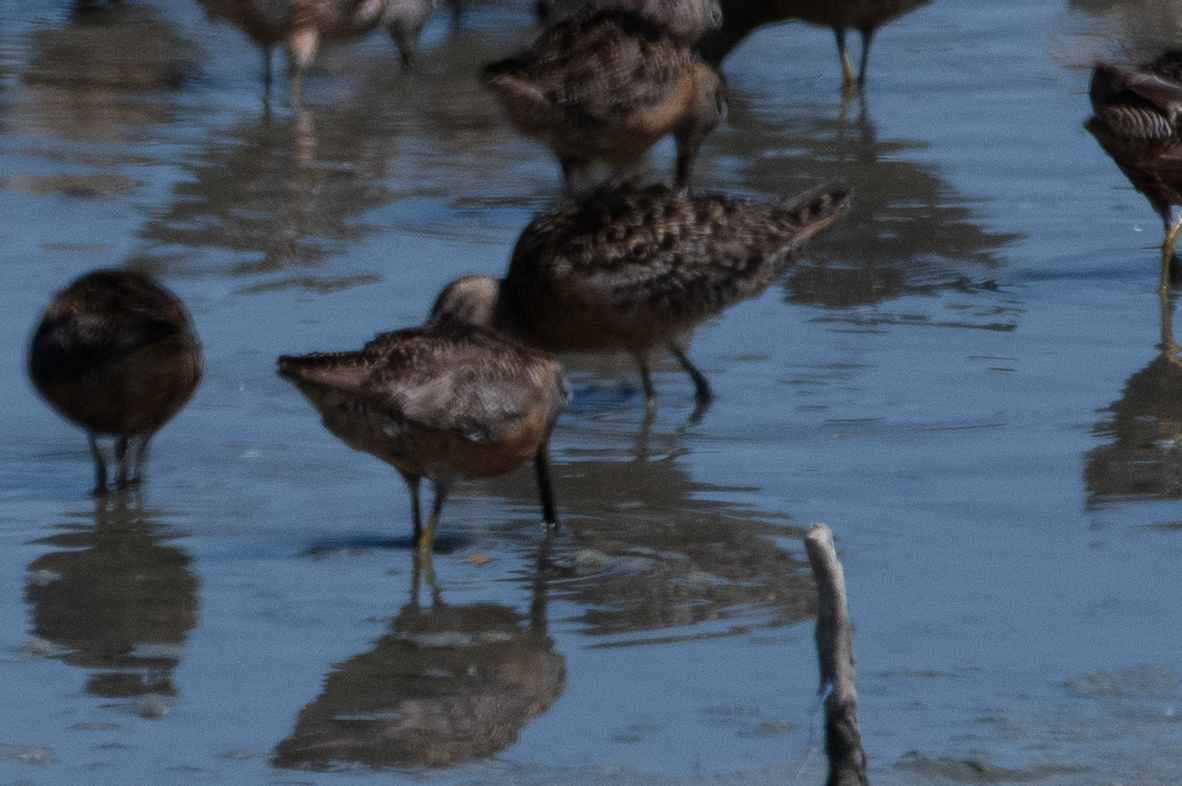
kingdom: Animalia
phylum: Chordata
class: Aves
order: Charadriiformes
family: Scolopacidae
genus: Limnodromus
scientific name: Limnodromus scolopaceus
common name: Long-billed dowitcher
